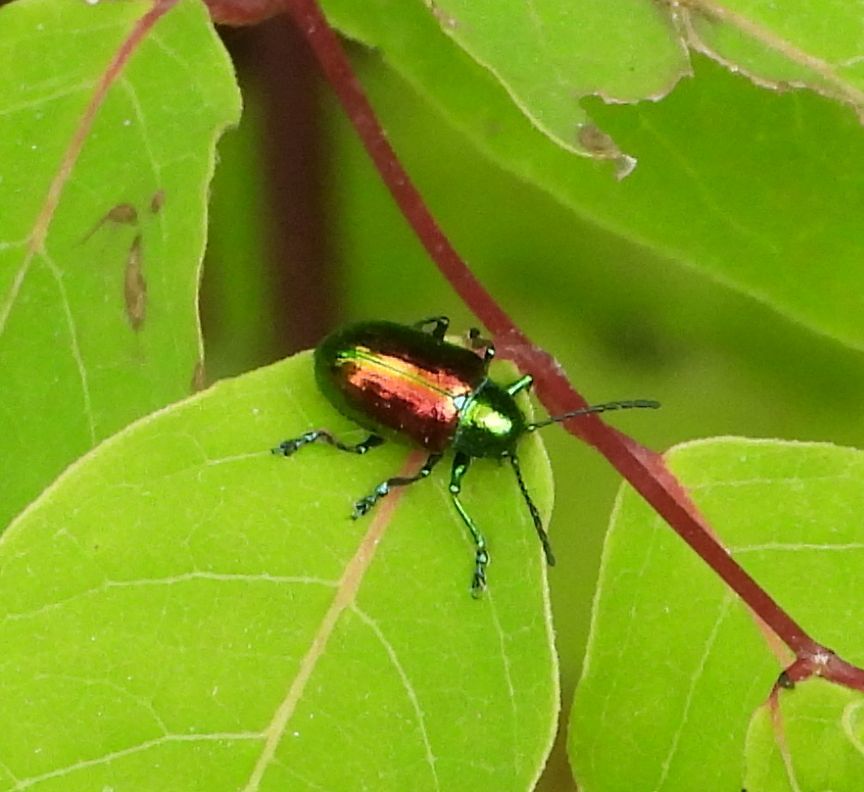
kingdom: Animalia
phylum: Arthropoda
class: Insecta
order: Coleoptera
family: Chrysomelidae
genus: Chrysochus
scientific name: Chrysochus auratus
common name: Dogbane leaf beetle
